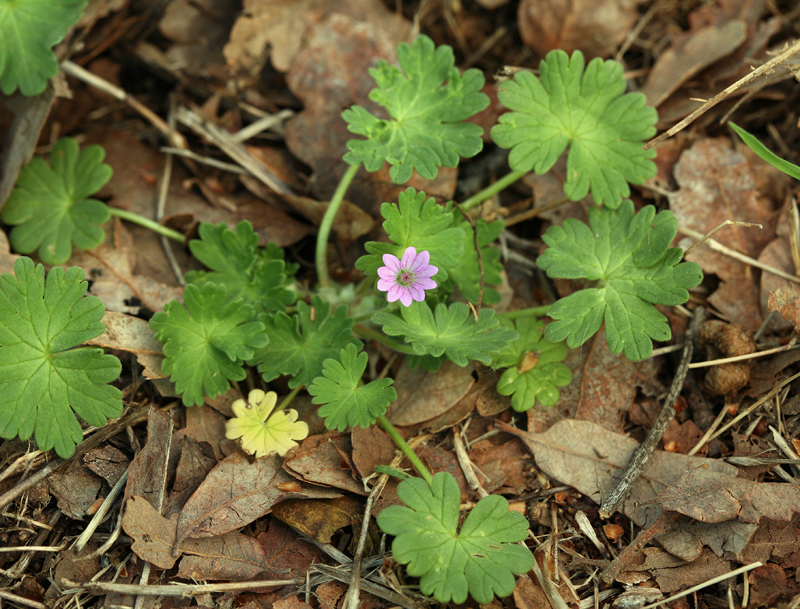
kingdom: Plantae
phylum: Tracheophyta
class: Magnoliopsida
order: Geraniales
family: Geraniaceae
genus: Geranium
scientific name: Geranium molle
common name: Dove's-foot crane's-bill
